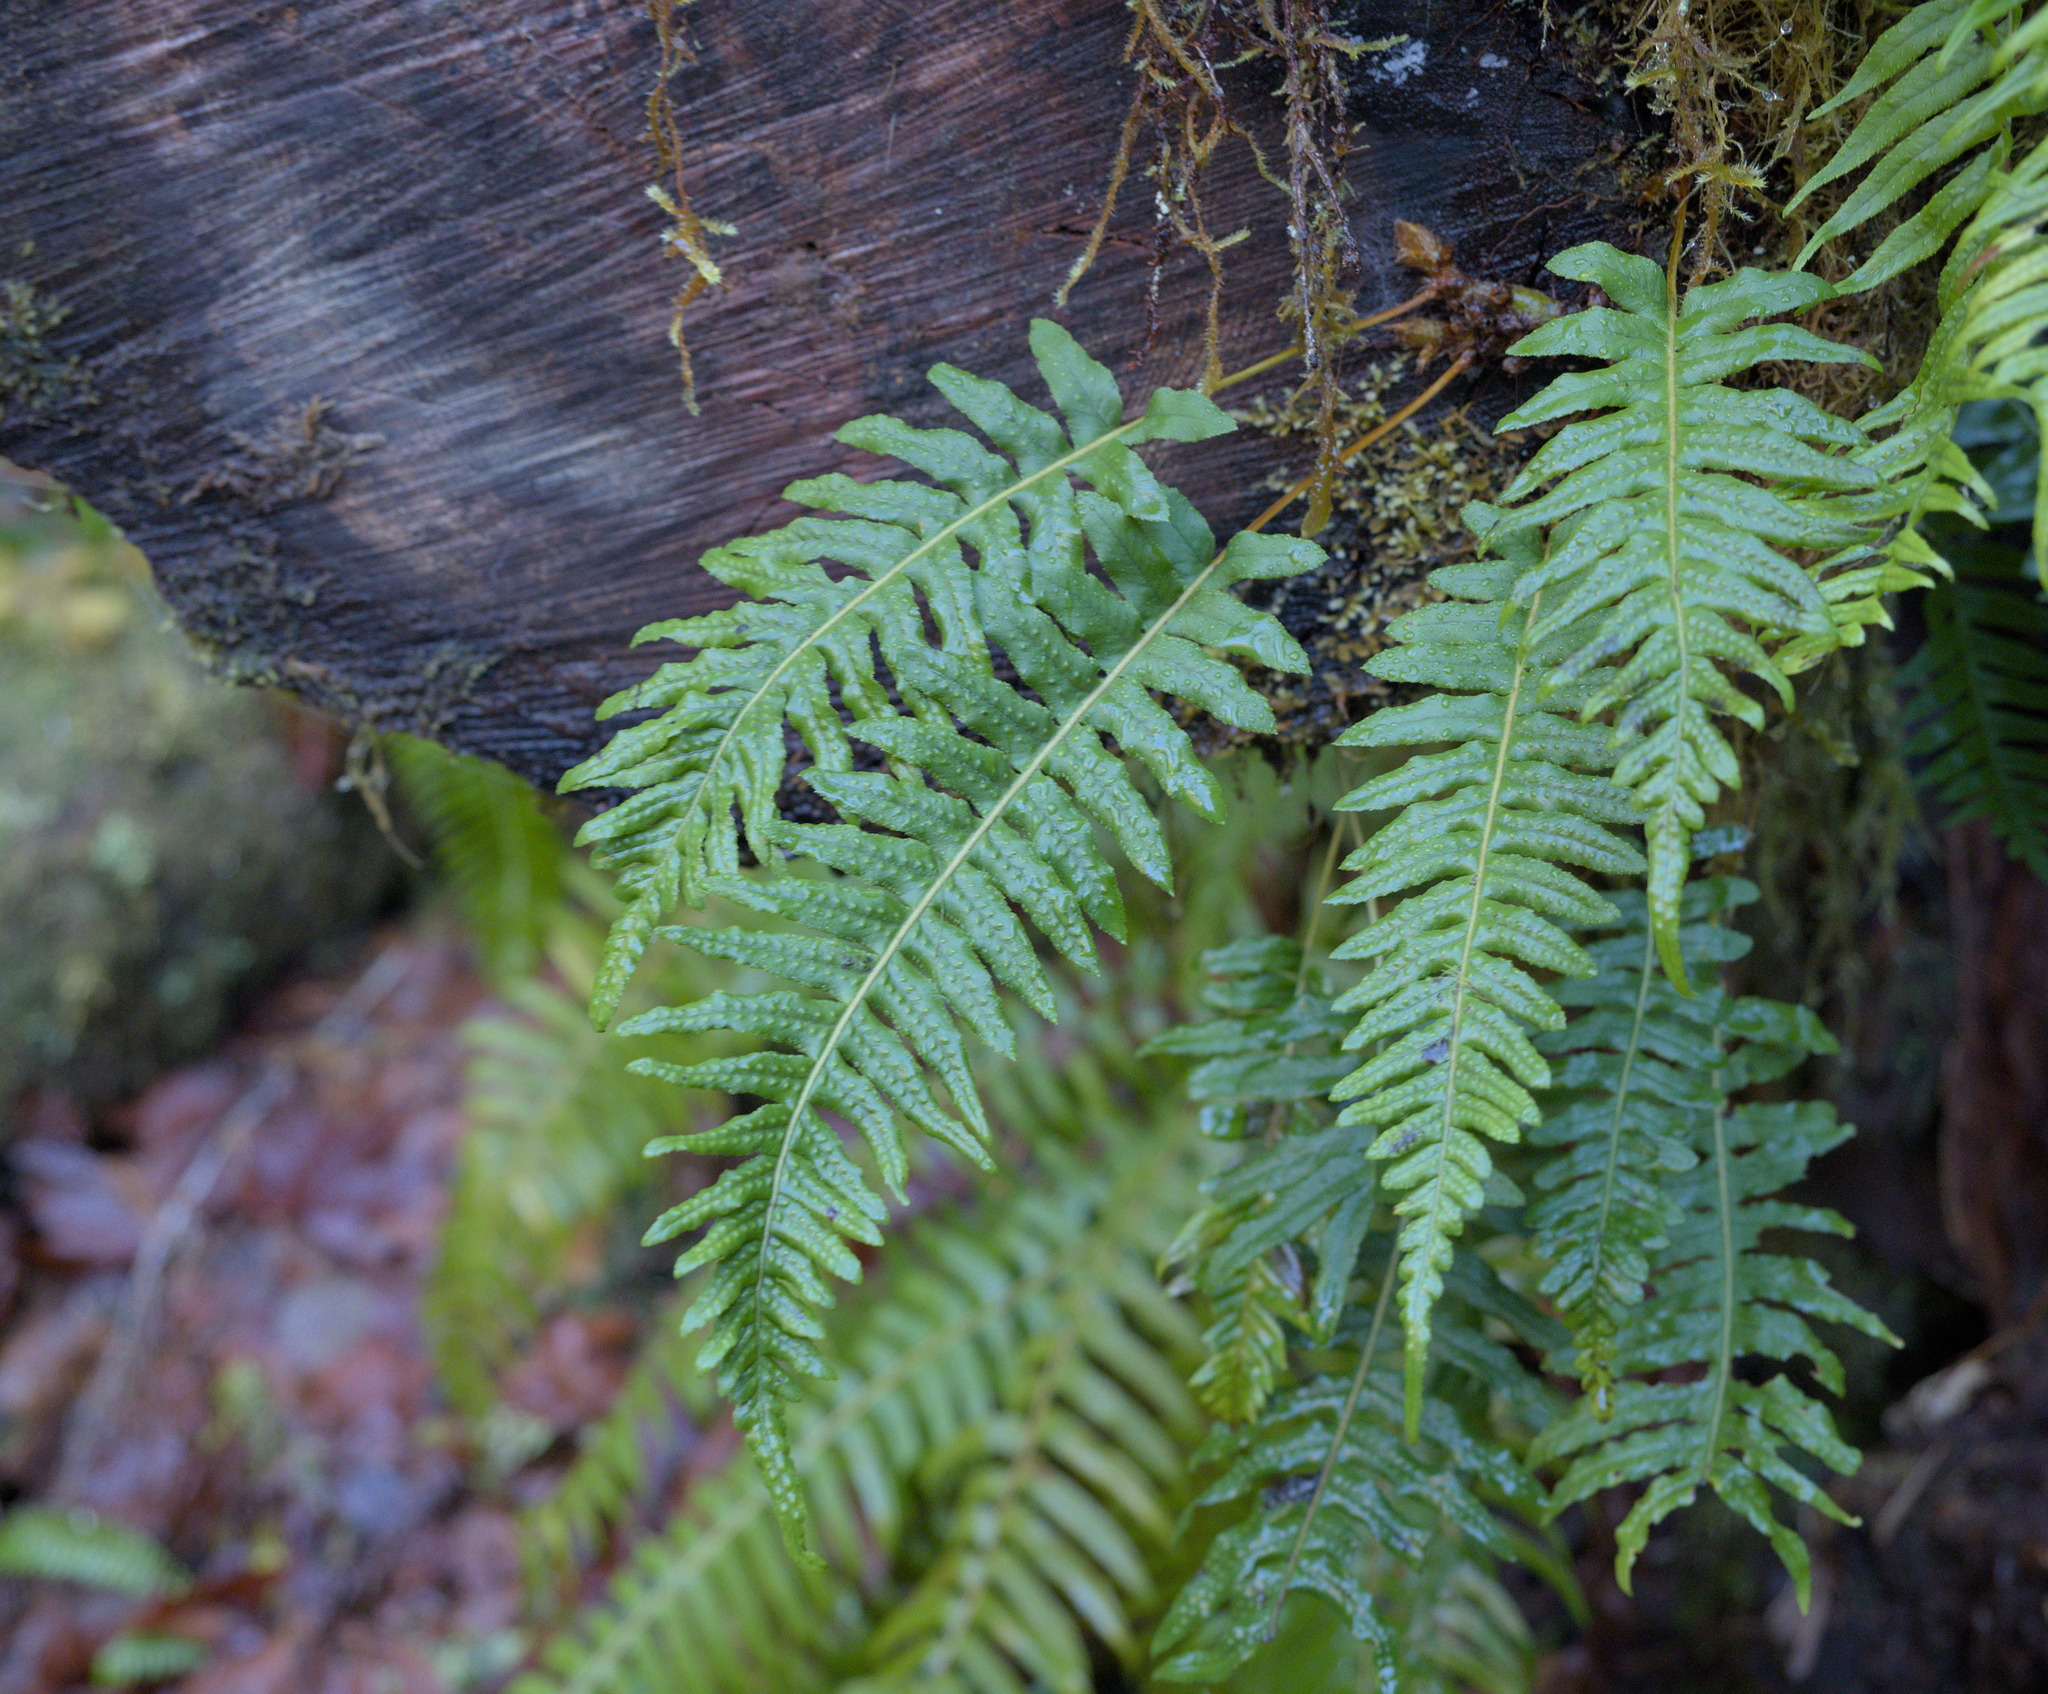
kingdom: Plantae
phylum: Tracheophyta
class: Polypodiopsida
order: Polypodiales
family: Polypodiaceae
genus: Polypodium
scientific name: Polypodium glycyrrhiza
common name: Licorice fern
